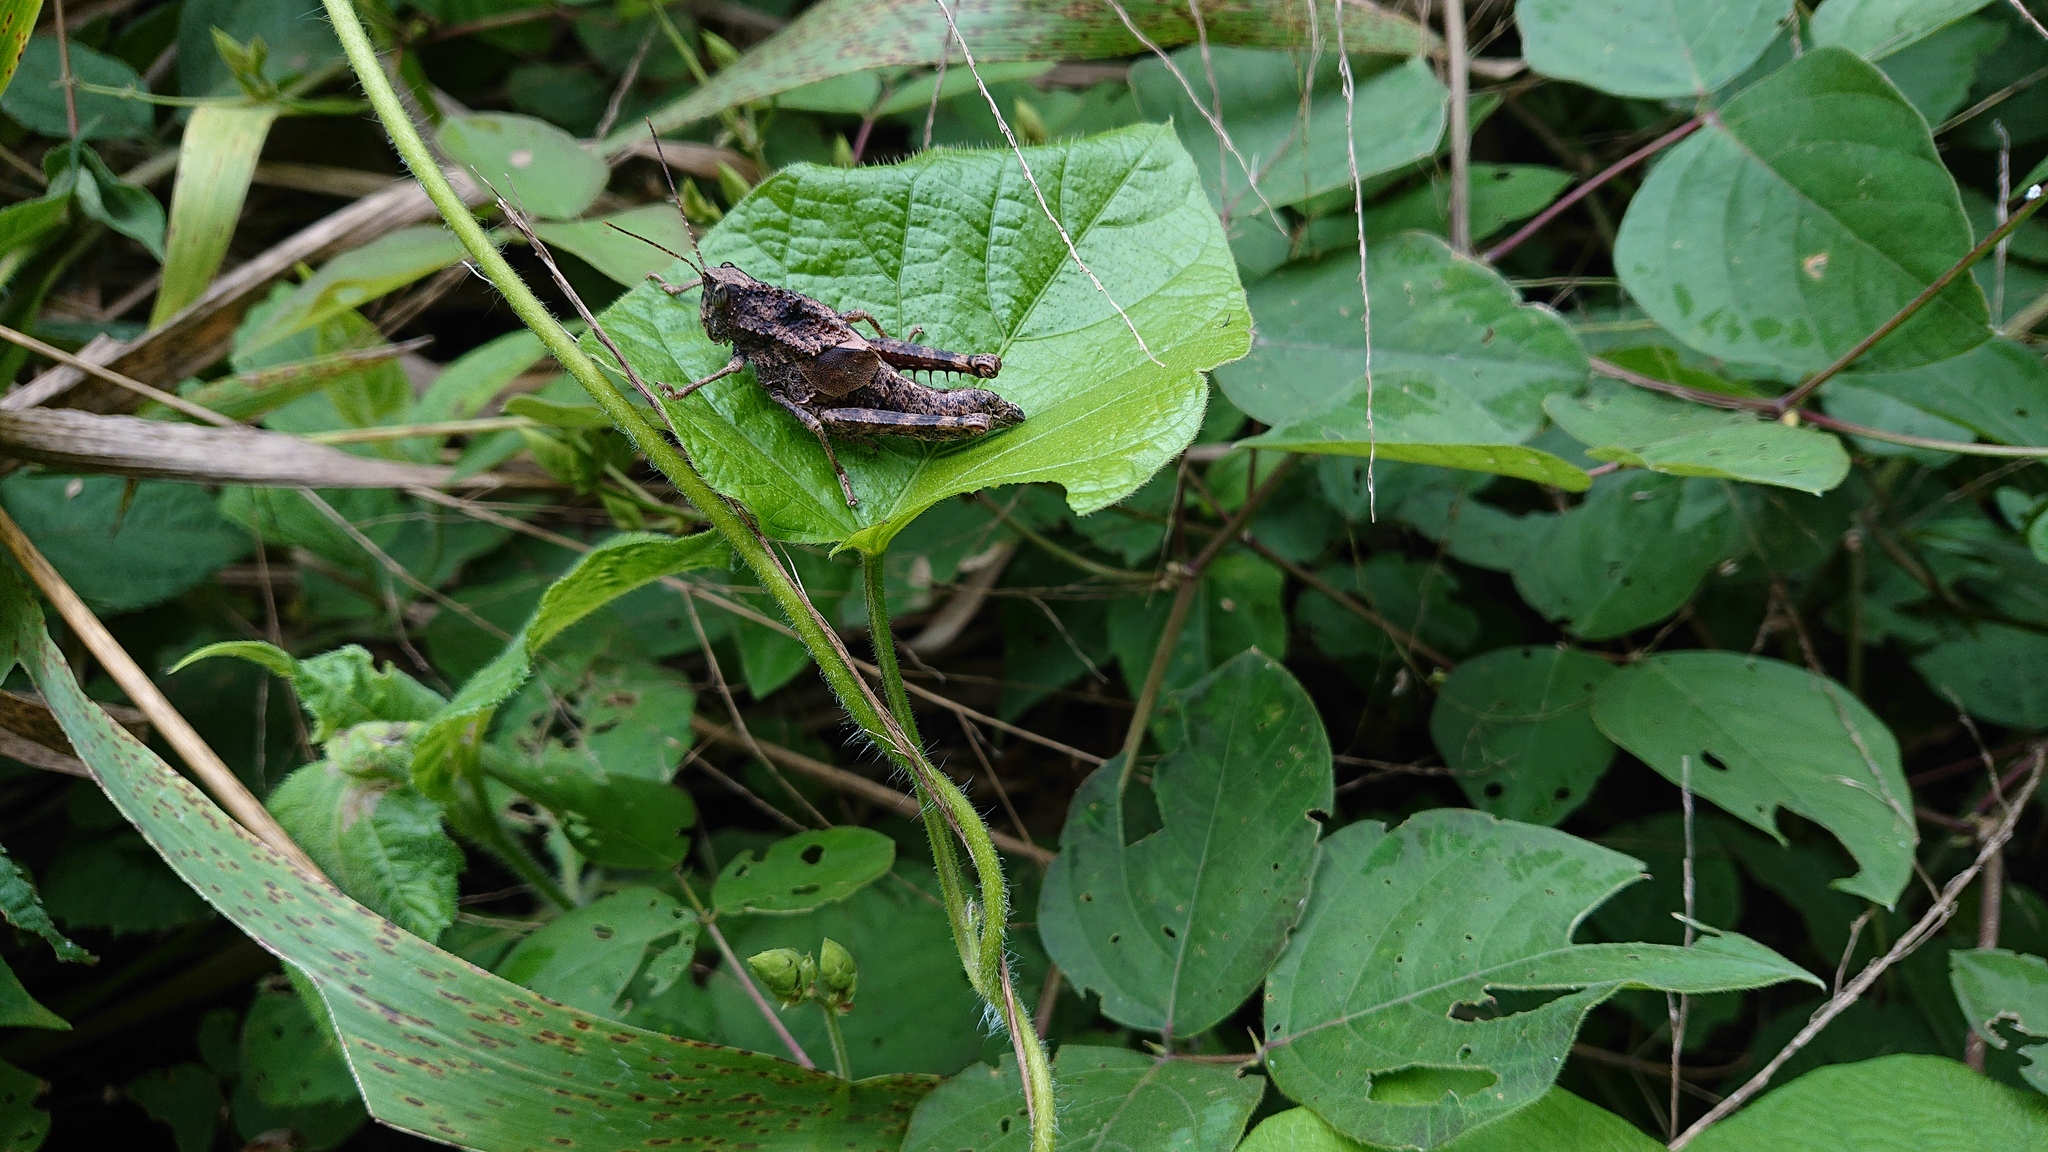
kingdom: Animalia
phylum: Arthropoda
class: Insecta
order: Orthoptera
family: Romaleidae
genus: Agriacris
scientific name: Agriacris aequatoriana
